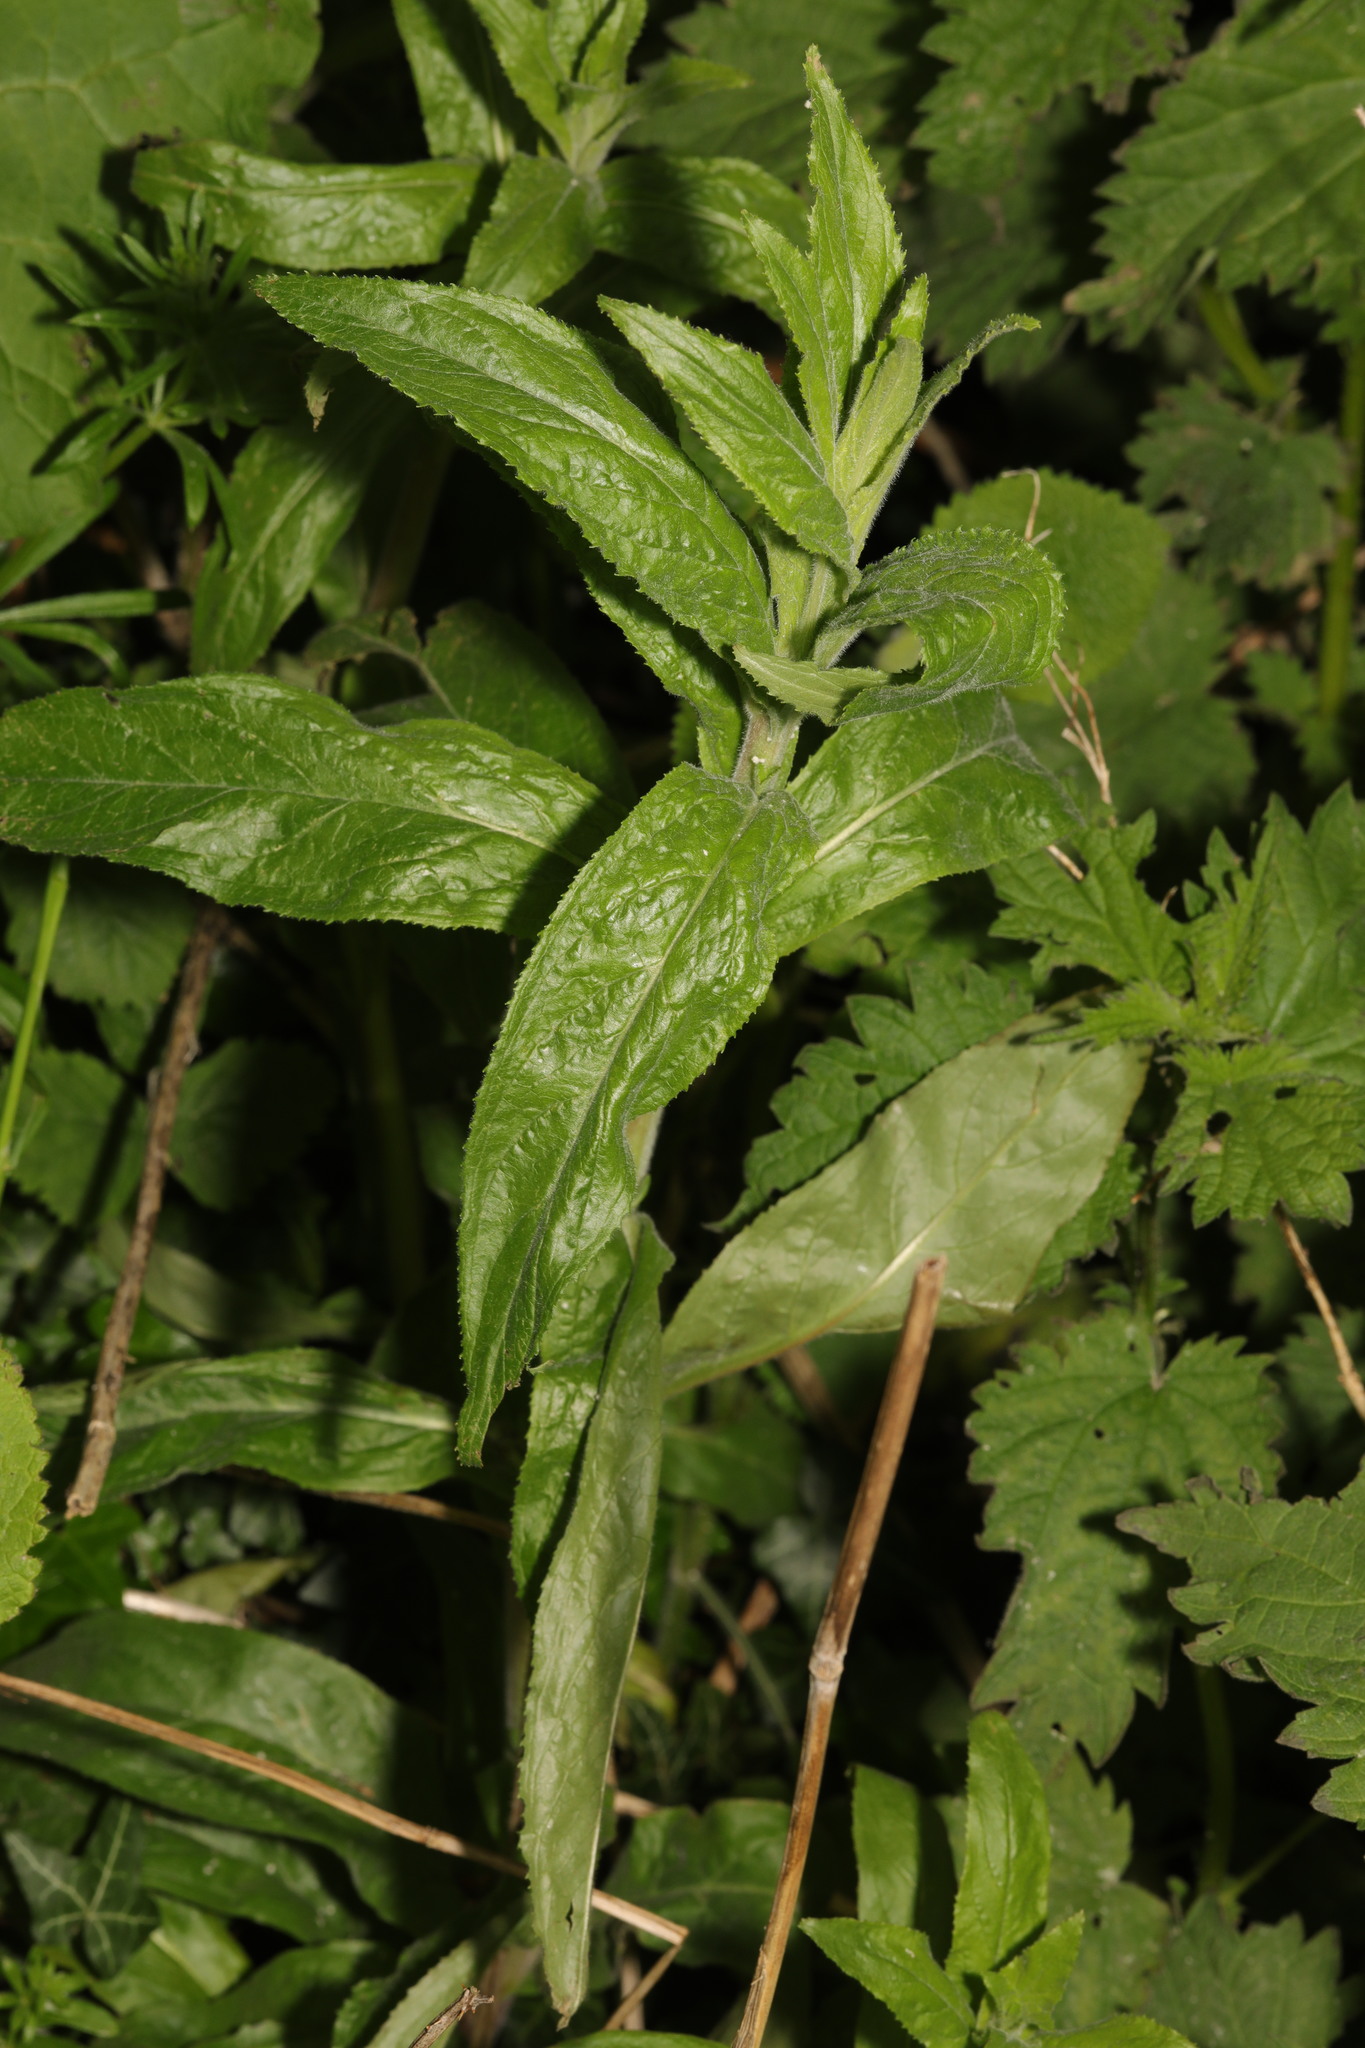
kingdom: Plantae
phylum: Tracheophyta
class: Magnoliopsida
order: Myrtales
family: Onagraceae
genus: Epilobium
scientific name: Epilobium hirsutum
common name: Great willowherb
